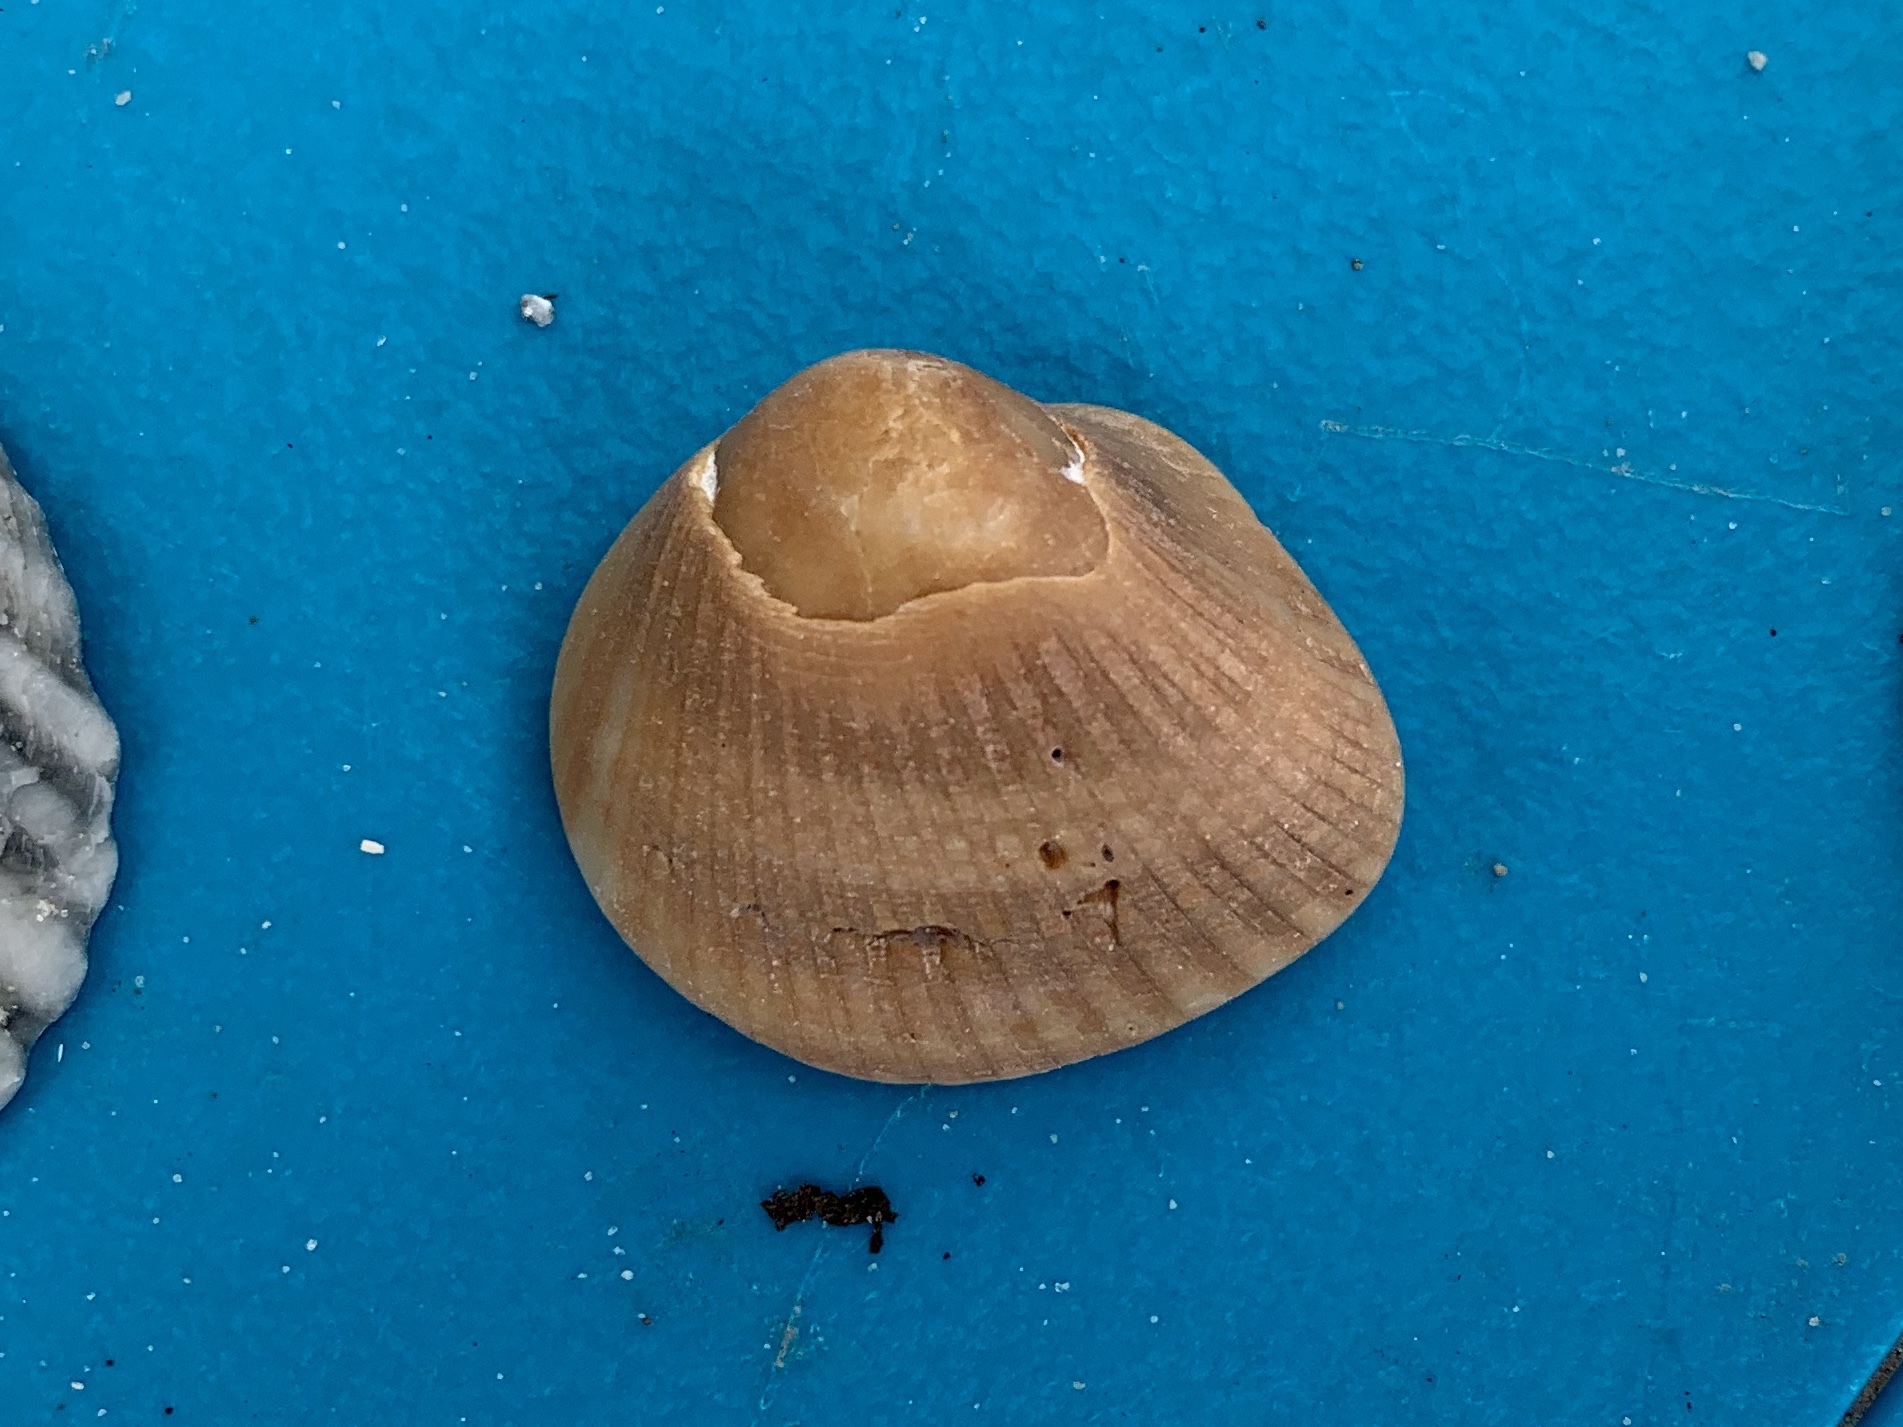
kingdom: Animalia
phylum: Mollusca
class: Bivalvia
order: Arcida
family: Noetiidae
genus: Noetia
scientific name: Noetia ponderosa
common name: Ponderous ark
